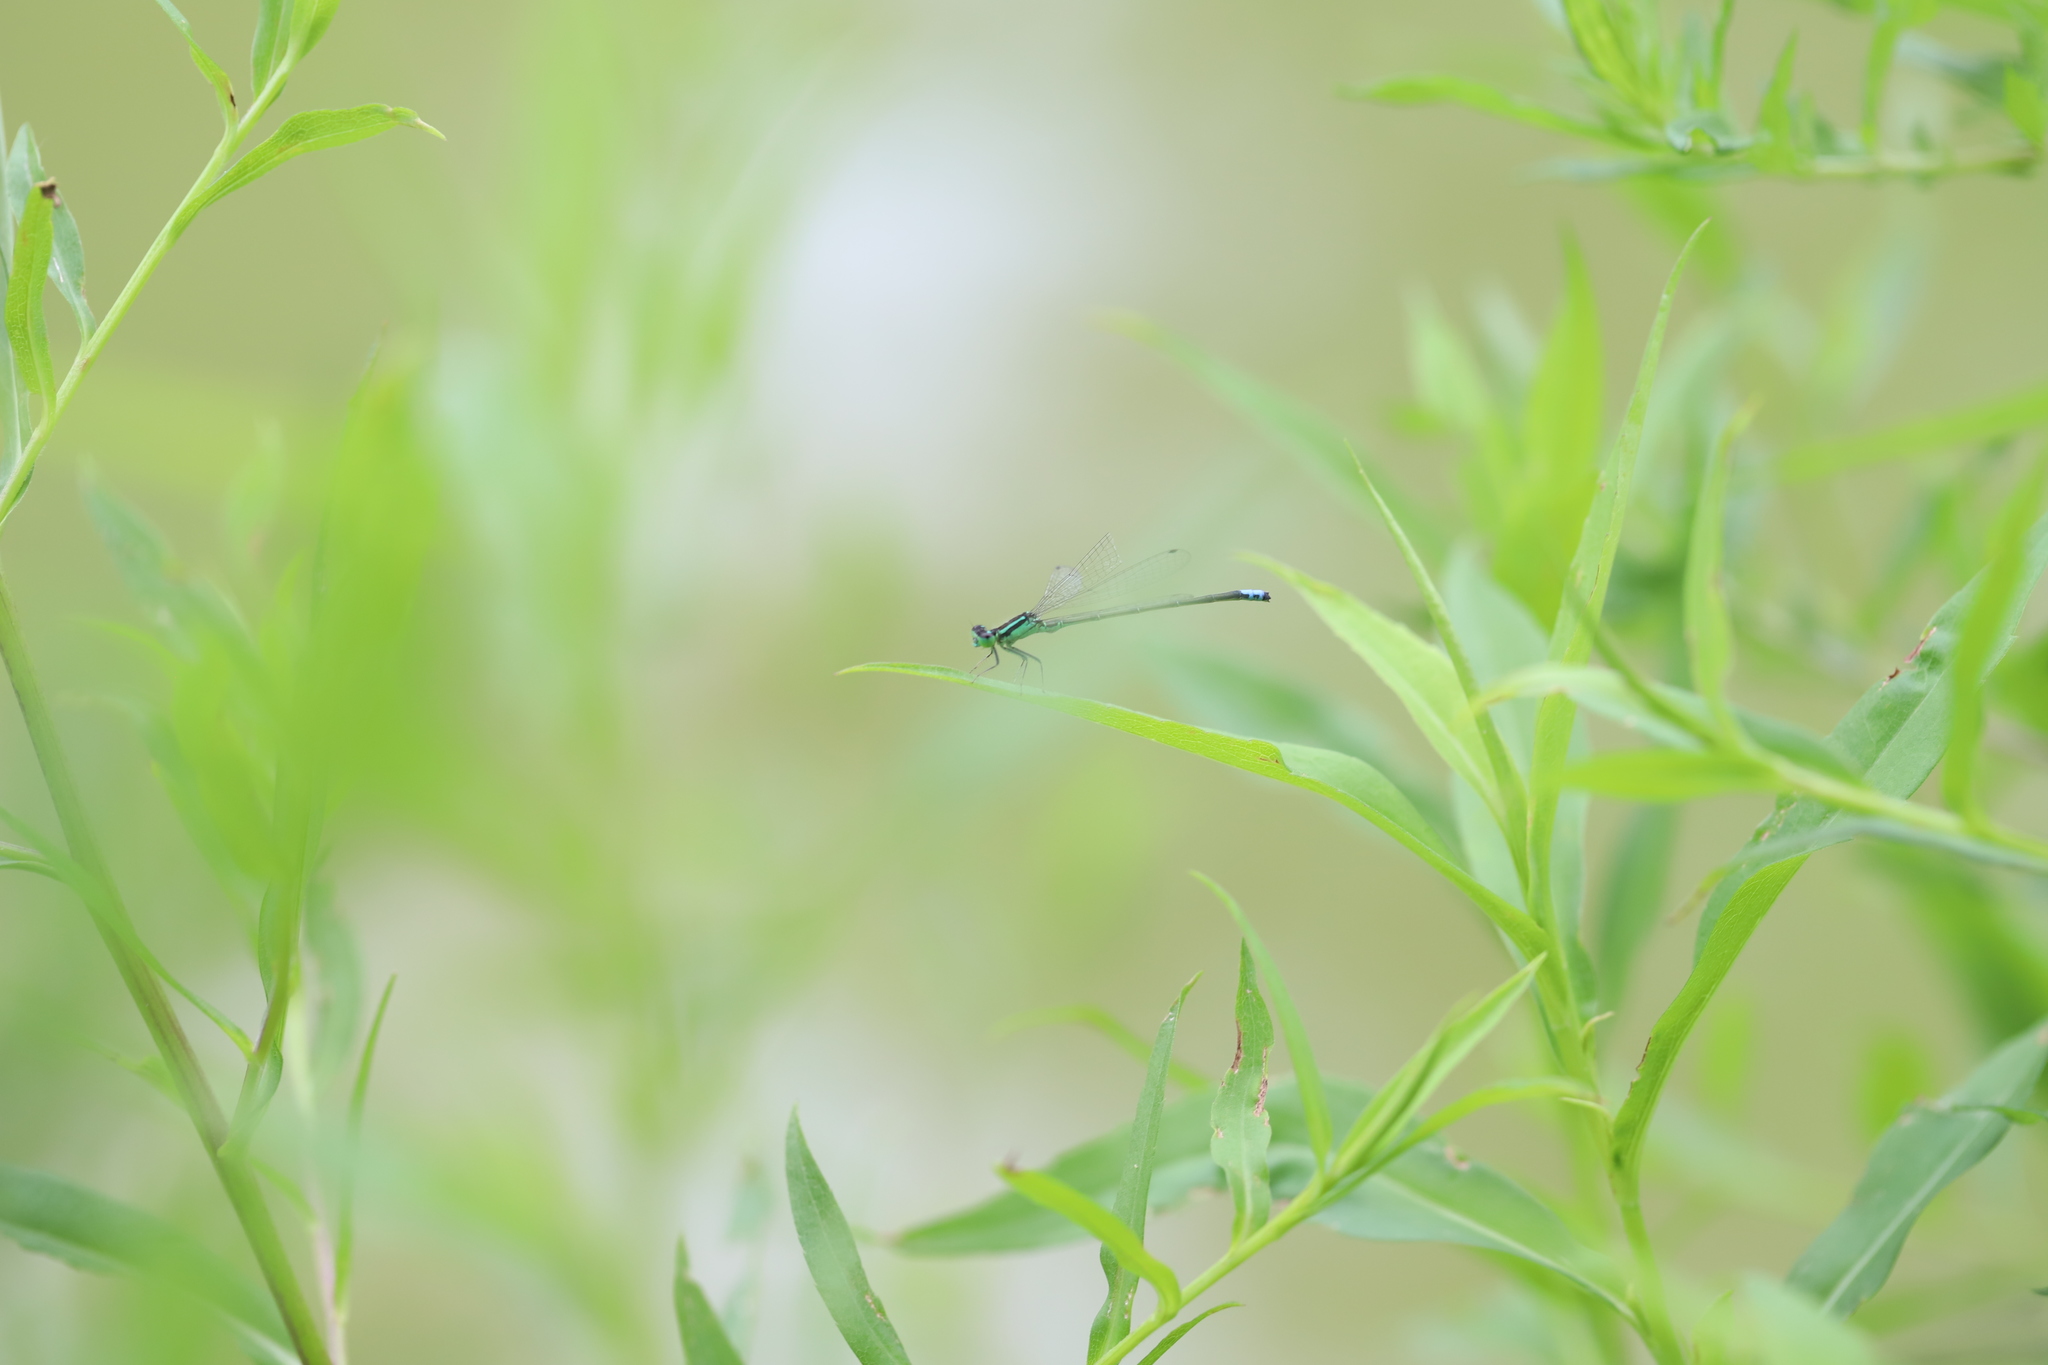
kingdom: Animalia
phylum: Arthropoda
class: Insecta
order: Odonata
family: Coenagrionidae
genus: Ischnura
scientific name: Ischnura verticalis
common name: Eastern forktail
